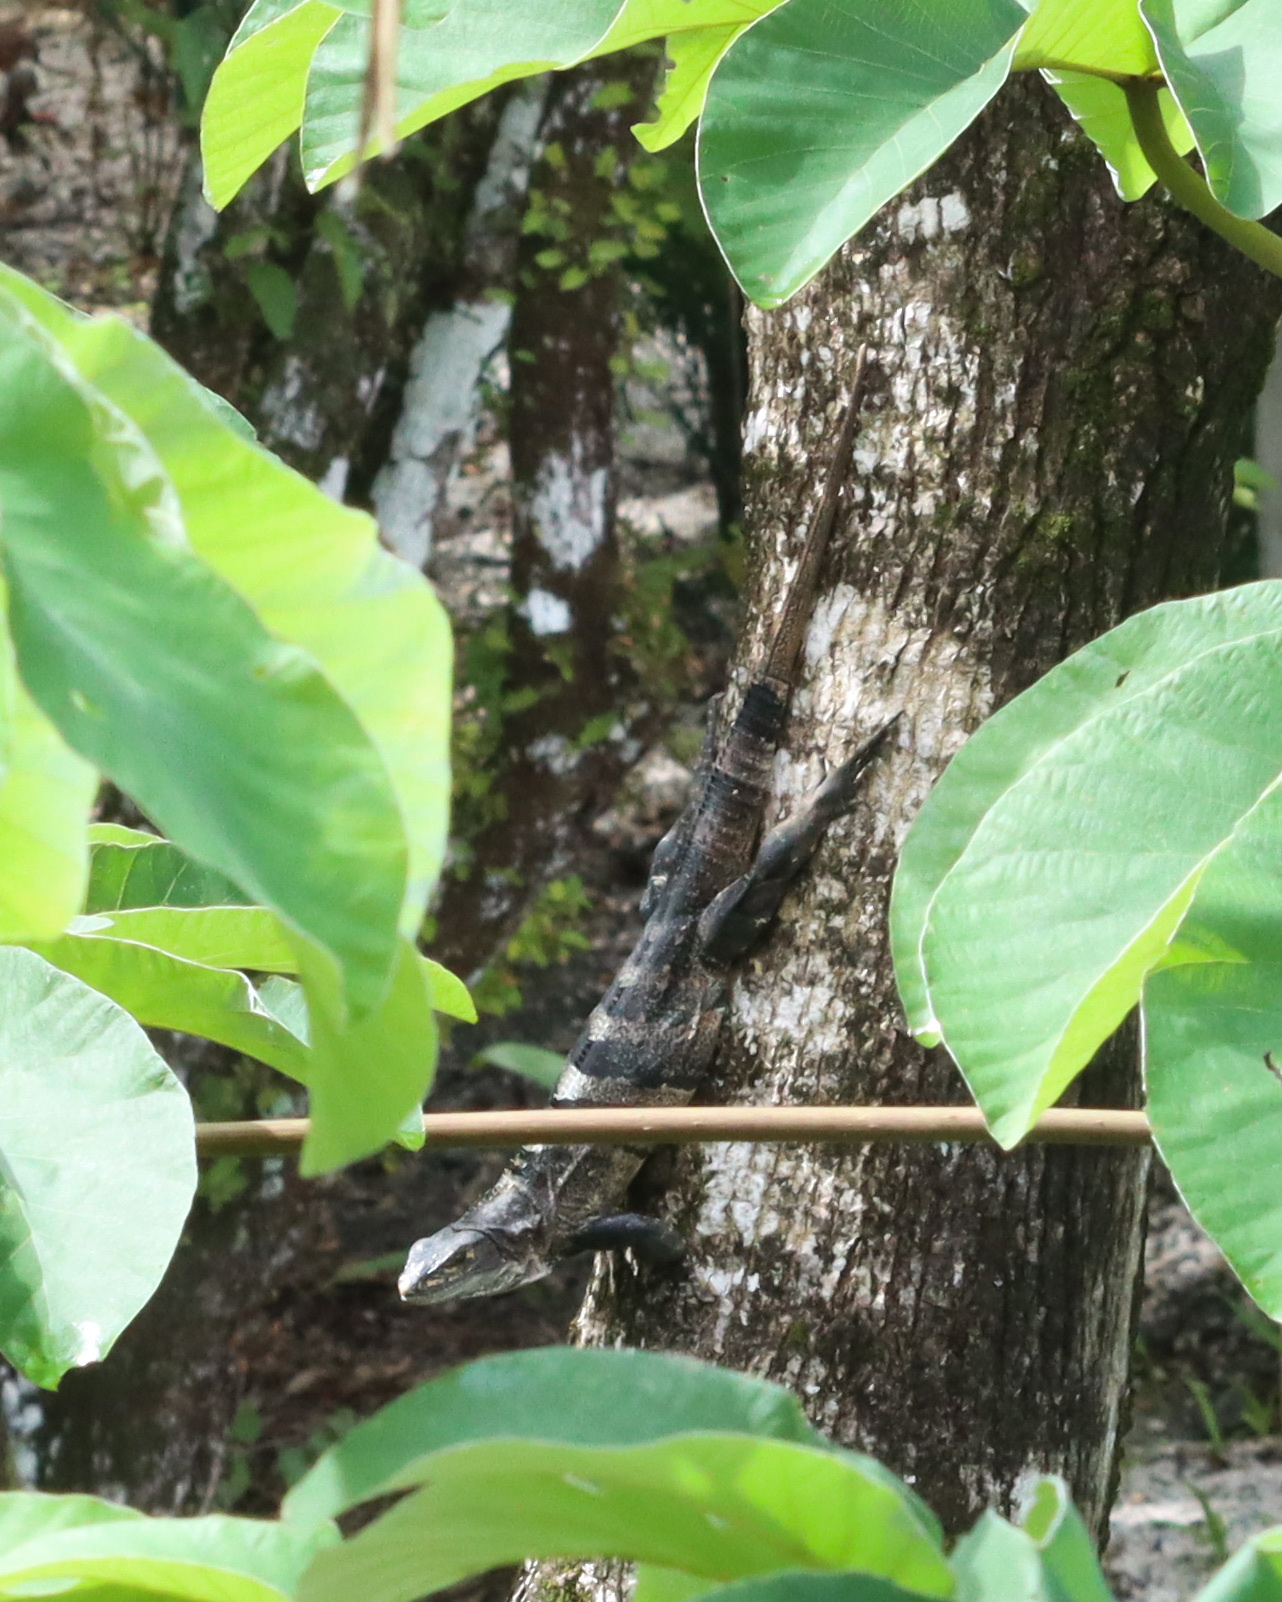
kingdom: Animalia
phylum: Chordata
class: Squamata
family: Iguanidae
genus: Ctenosaura
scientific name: Ctenosaura similis
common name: Black spiny-tailed iguana
